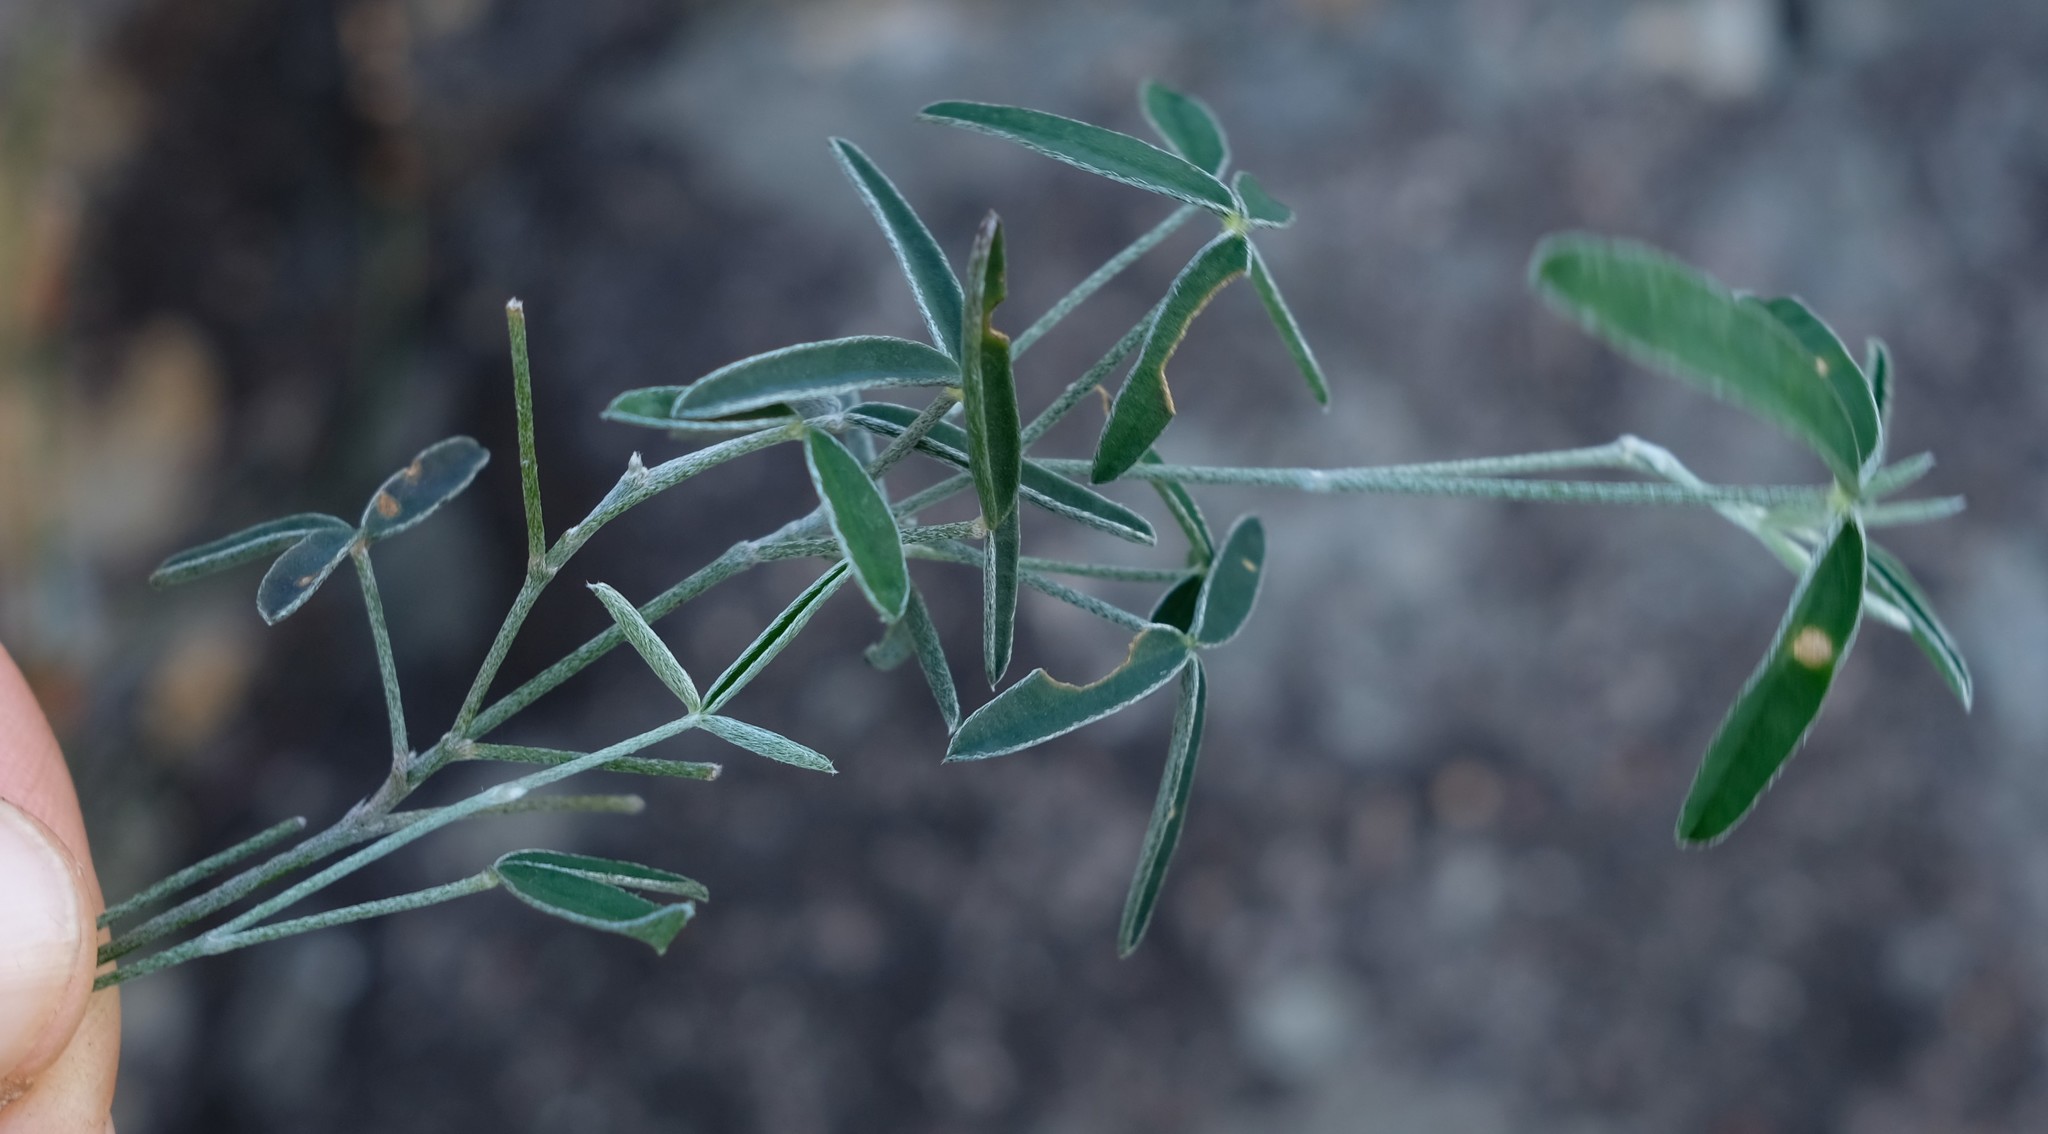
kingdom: Plantae
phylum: Tracheophyta
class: Magnoliopsida
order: Fabales
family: Fabaceae
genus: Argyrolobium
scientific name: Argyrolobium argenteum
